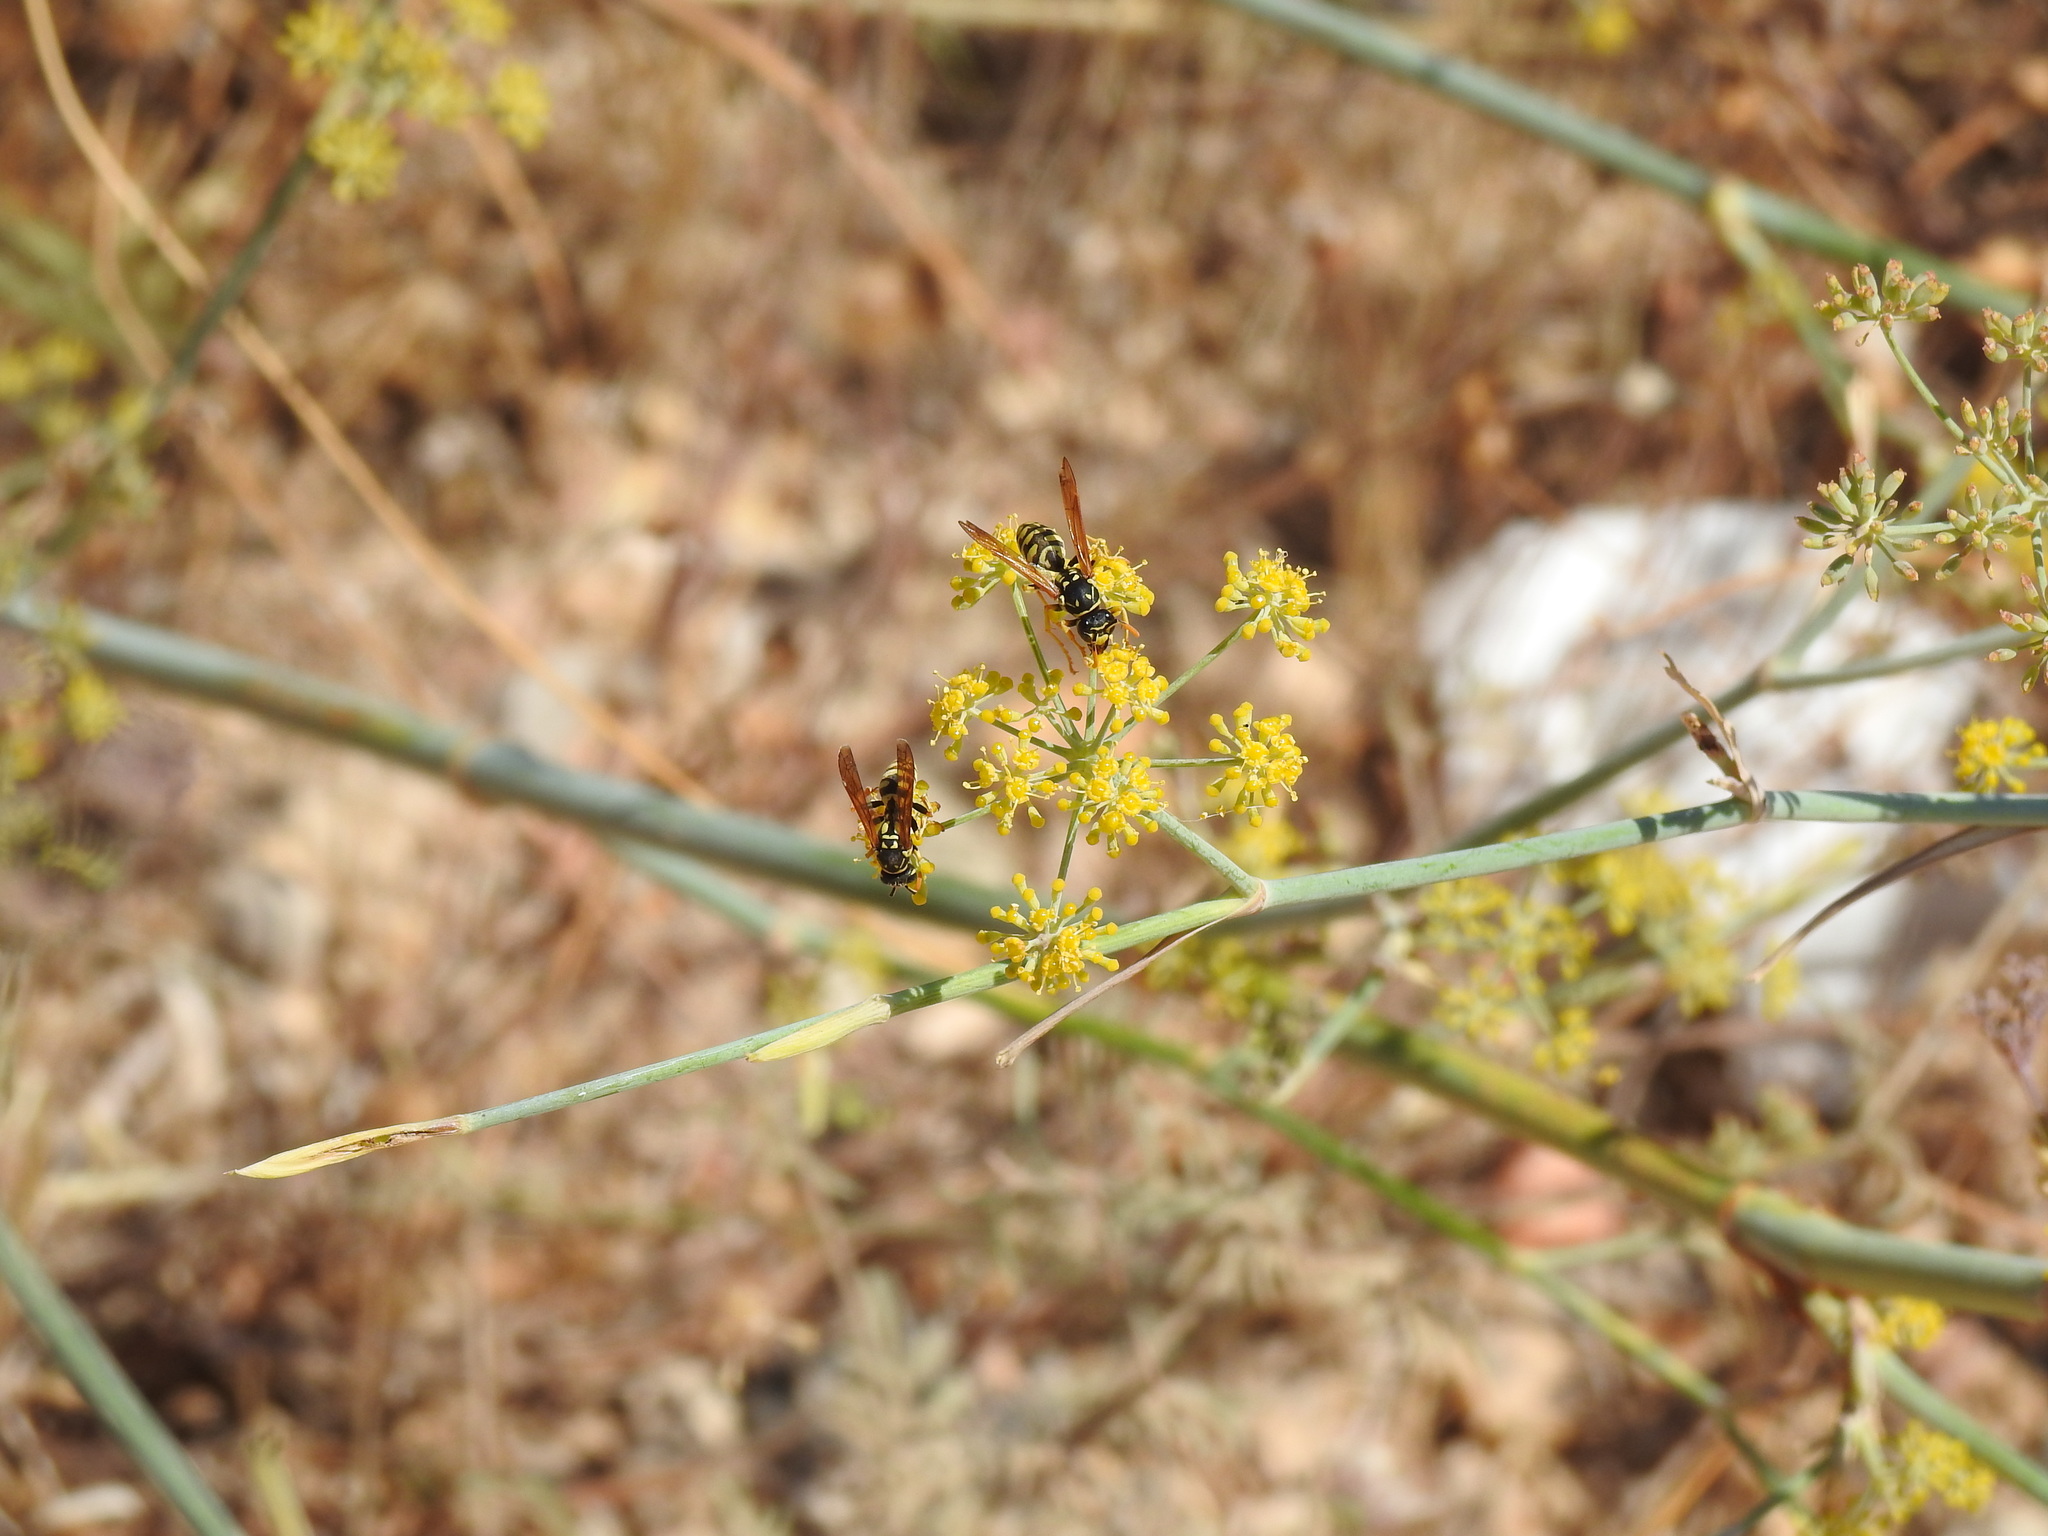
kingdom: Animalia
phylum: Arthropoda
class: Insecta
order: Hymenoptera
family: Eumenidae
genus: Polistes
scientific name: Polistes dominula
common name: Paper wasp
